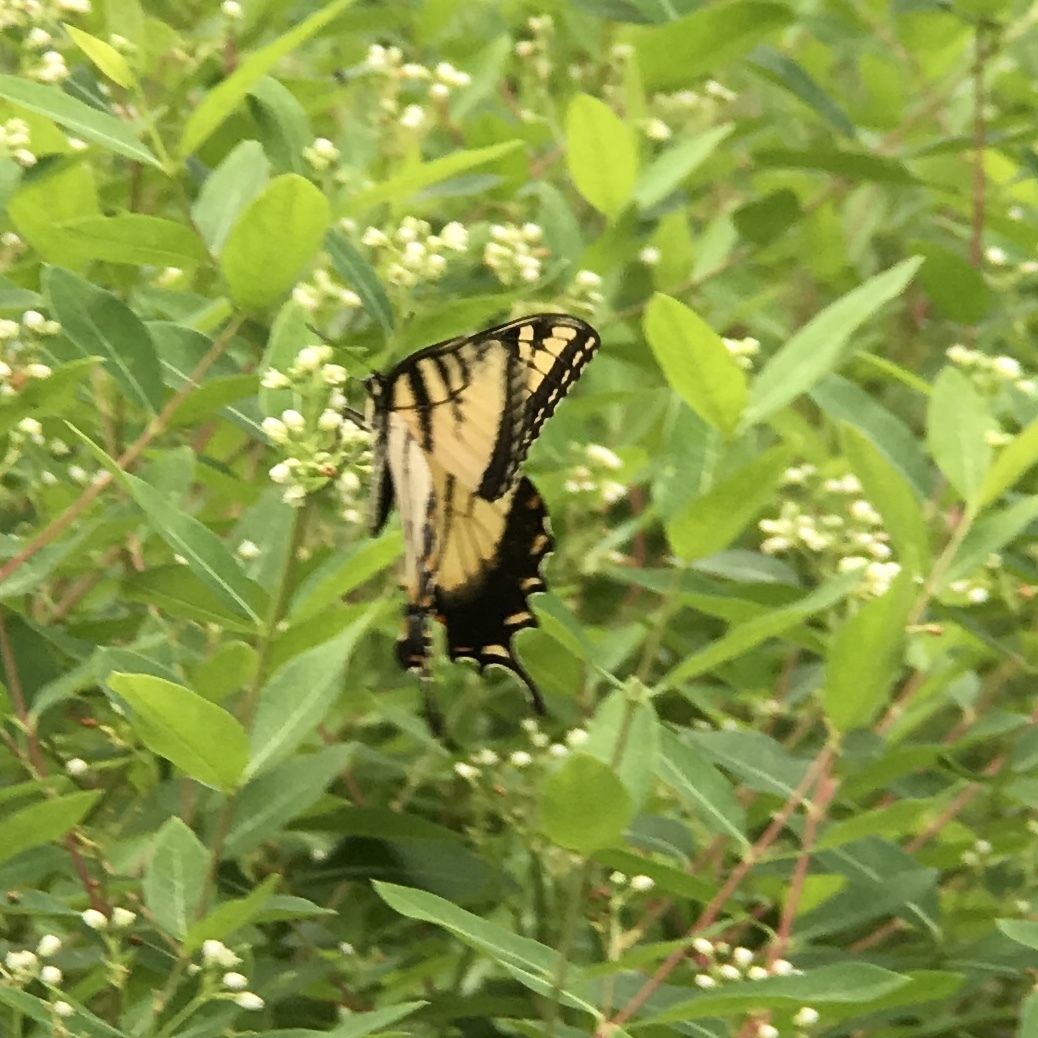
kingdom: Animalia
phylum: Arthropoda
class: Insecta
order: Lepidoptera
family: Papilionidae
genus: Papilio
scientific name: Papilio glaucus
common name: Tiger swallowtail
